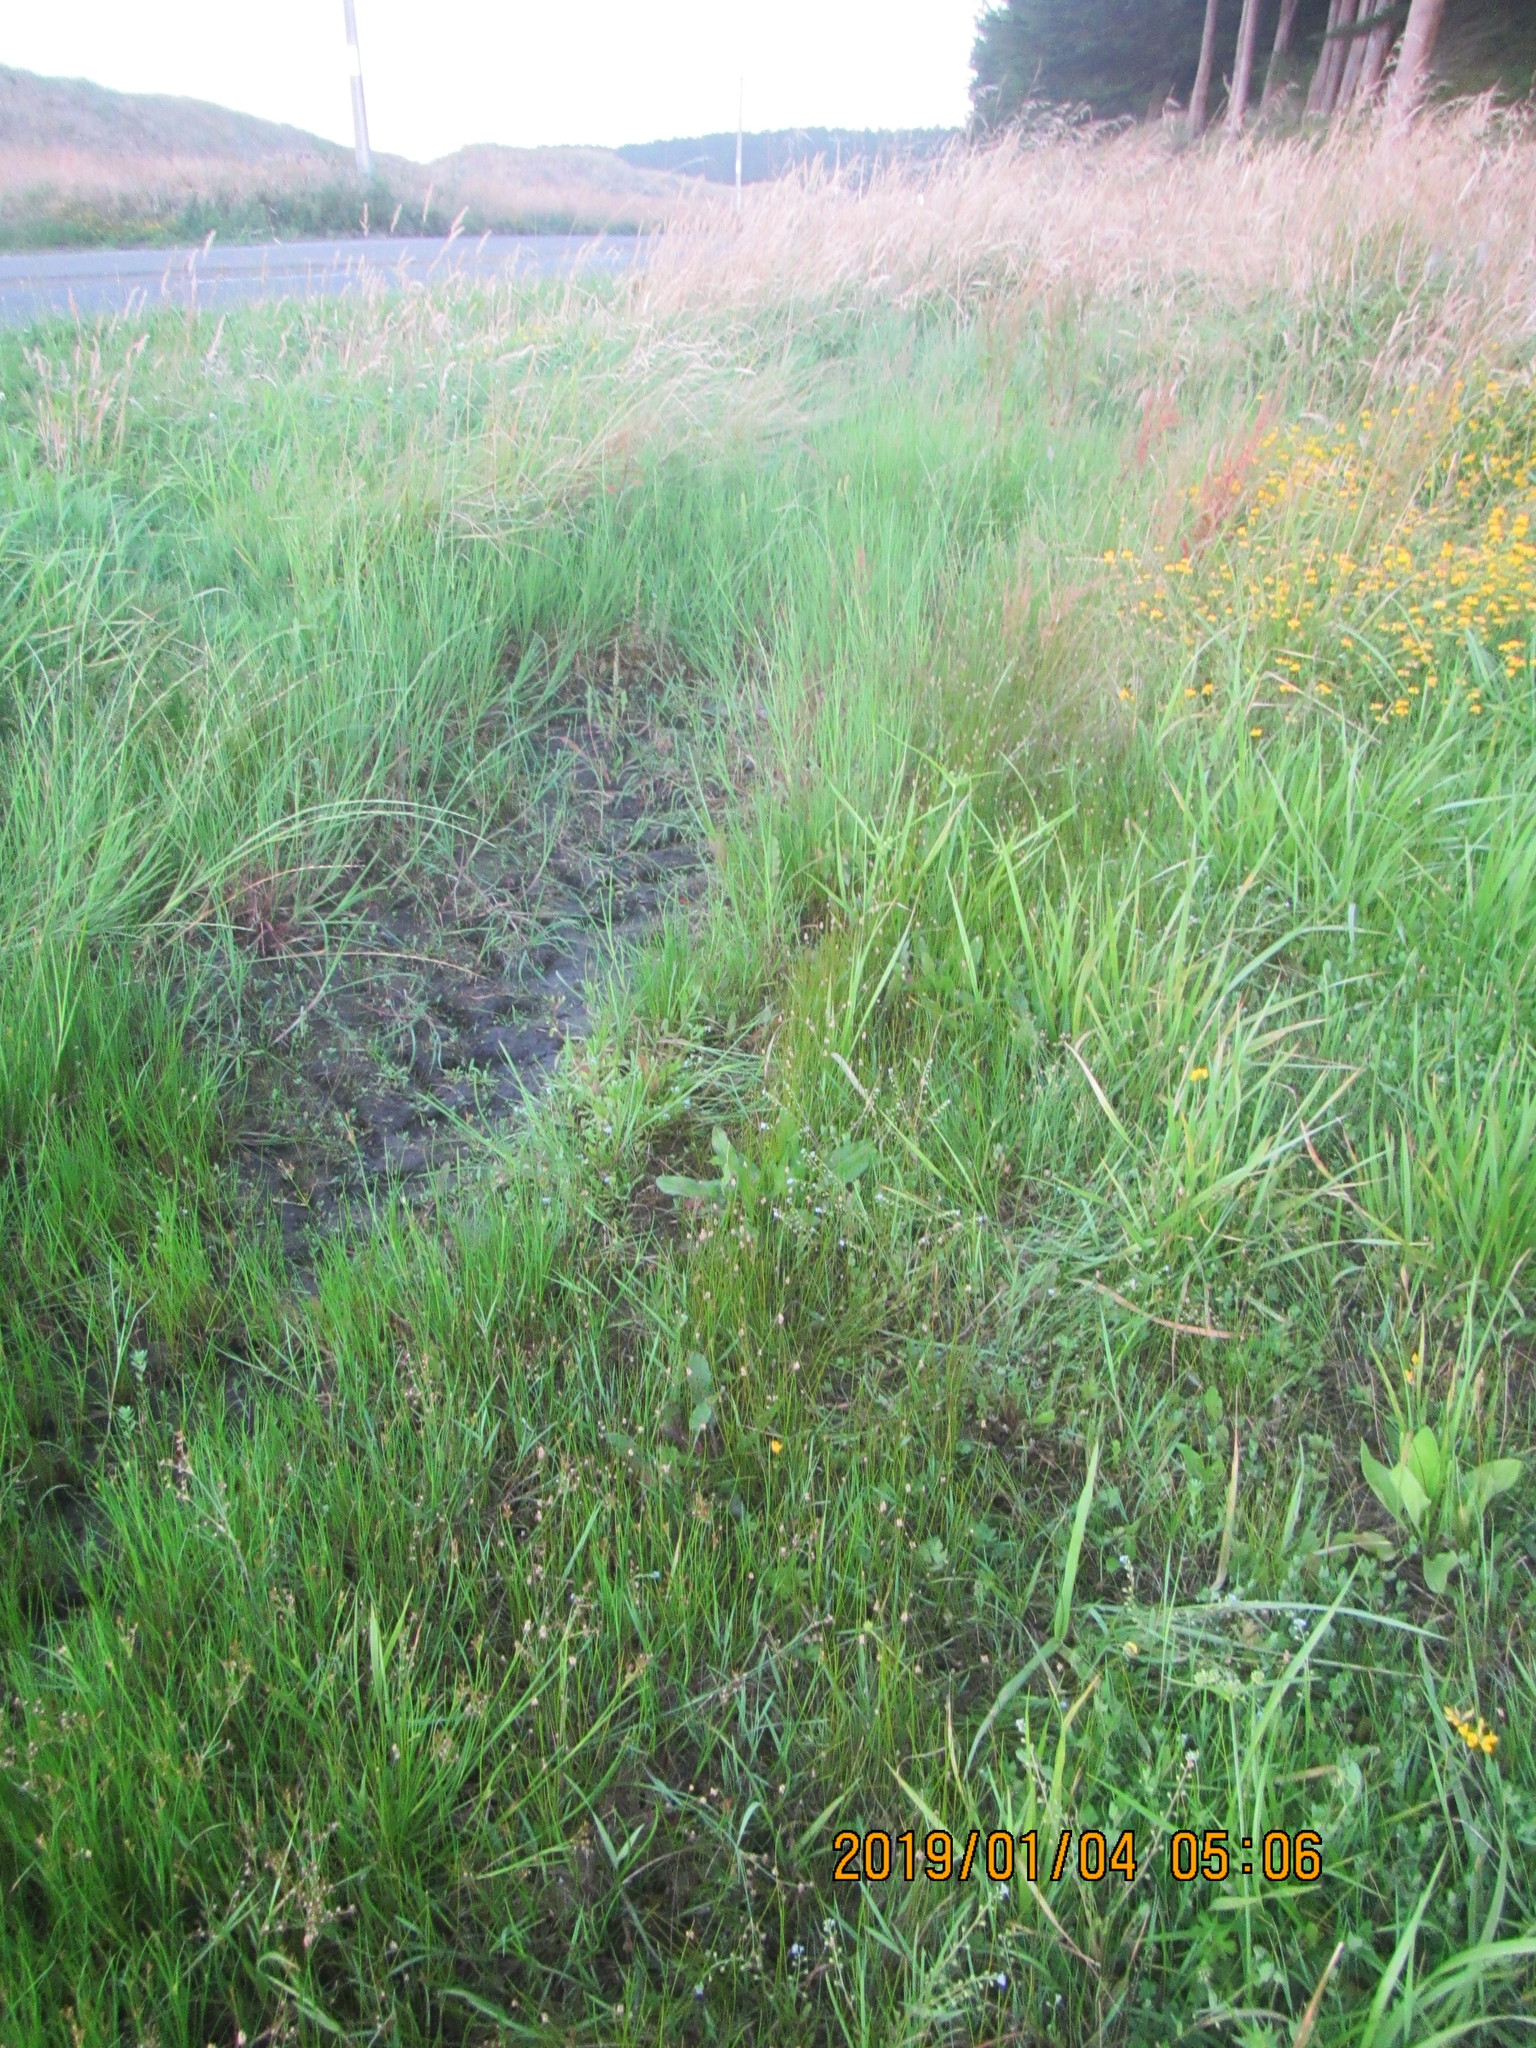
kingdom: Plantae
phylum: Tracheophyta
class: Liliopsida
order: Poales
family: Cyperaceae
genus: Eleocharis
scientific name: Eleocharis acuta
